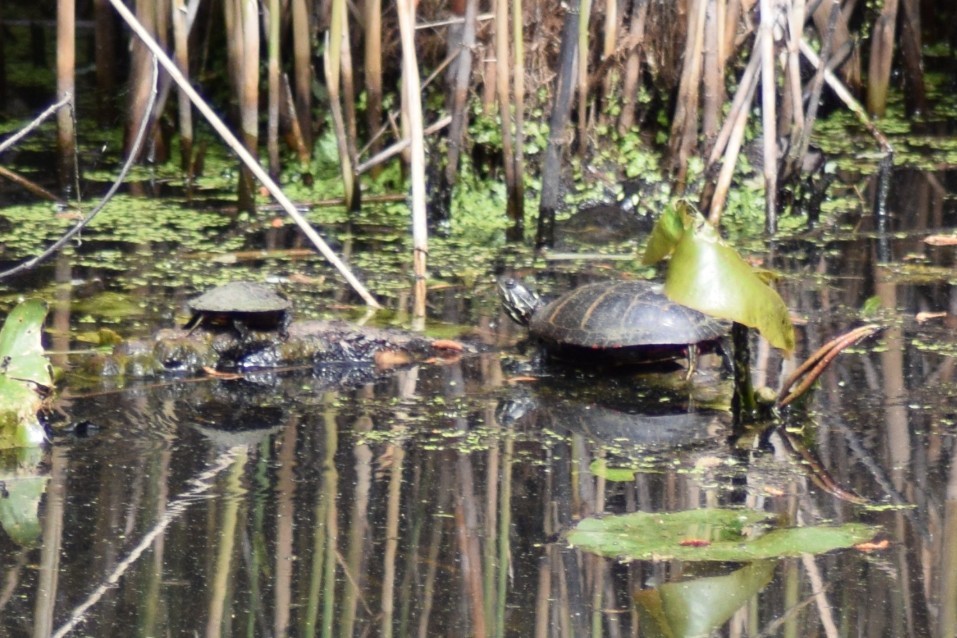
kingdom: Animalia
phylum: Chordata
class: Testudines
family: Emydidae
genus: Chrysemys
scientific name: Chrysemys picta
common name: Painted turtle
